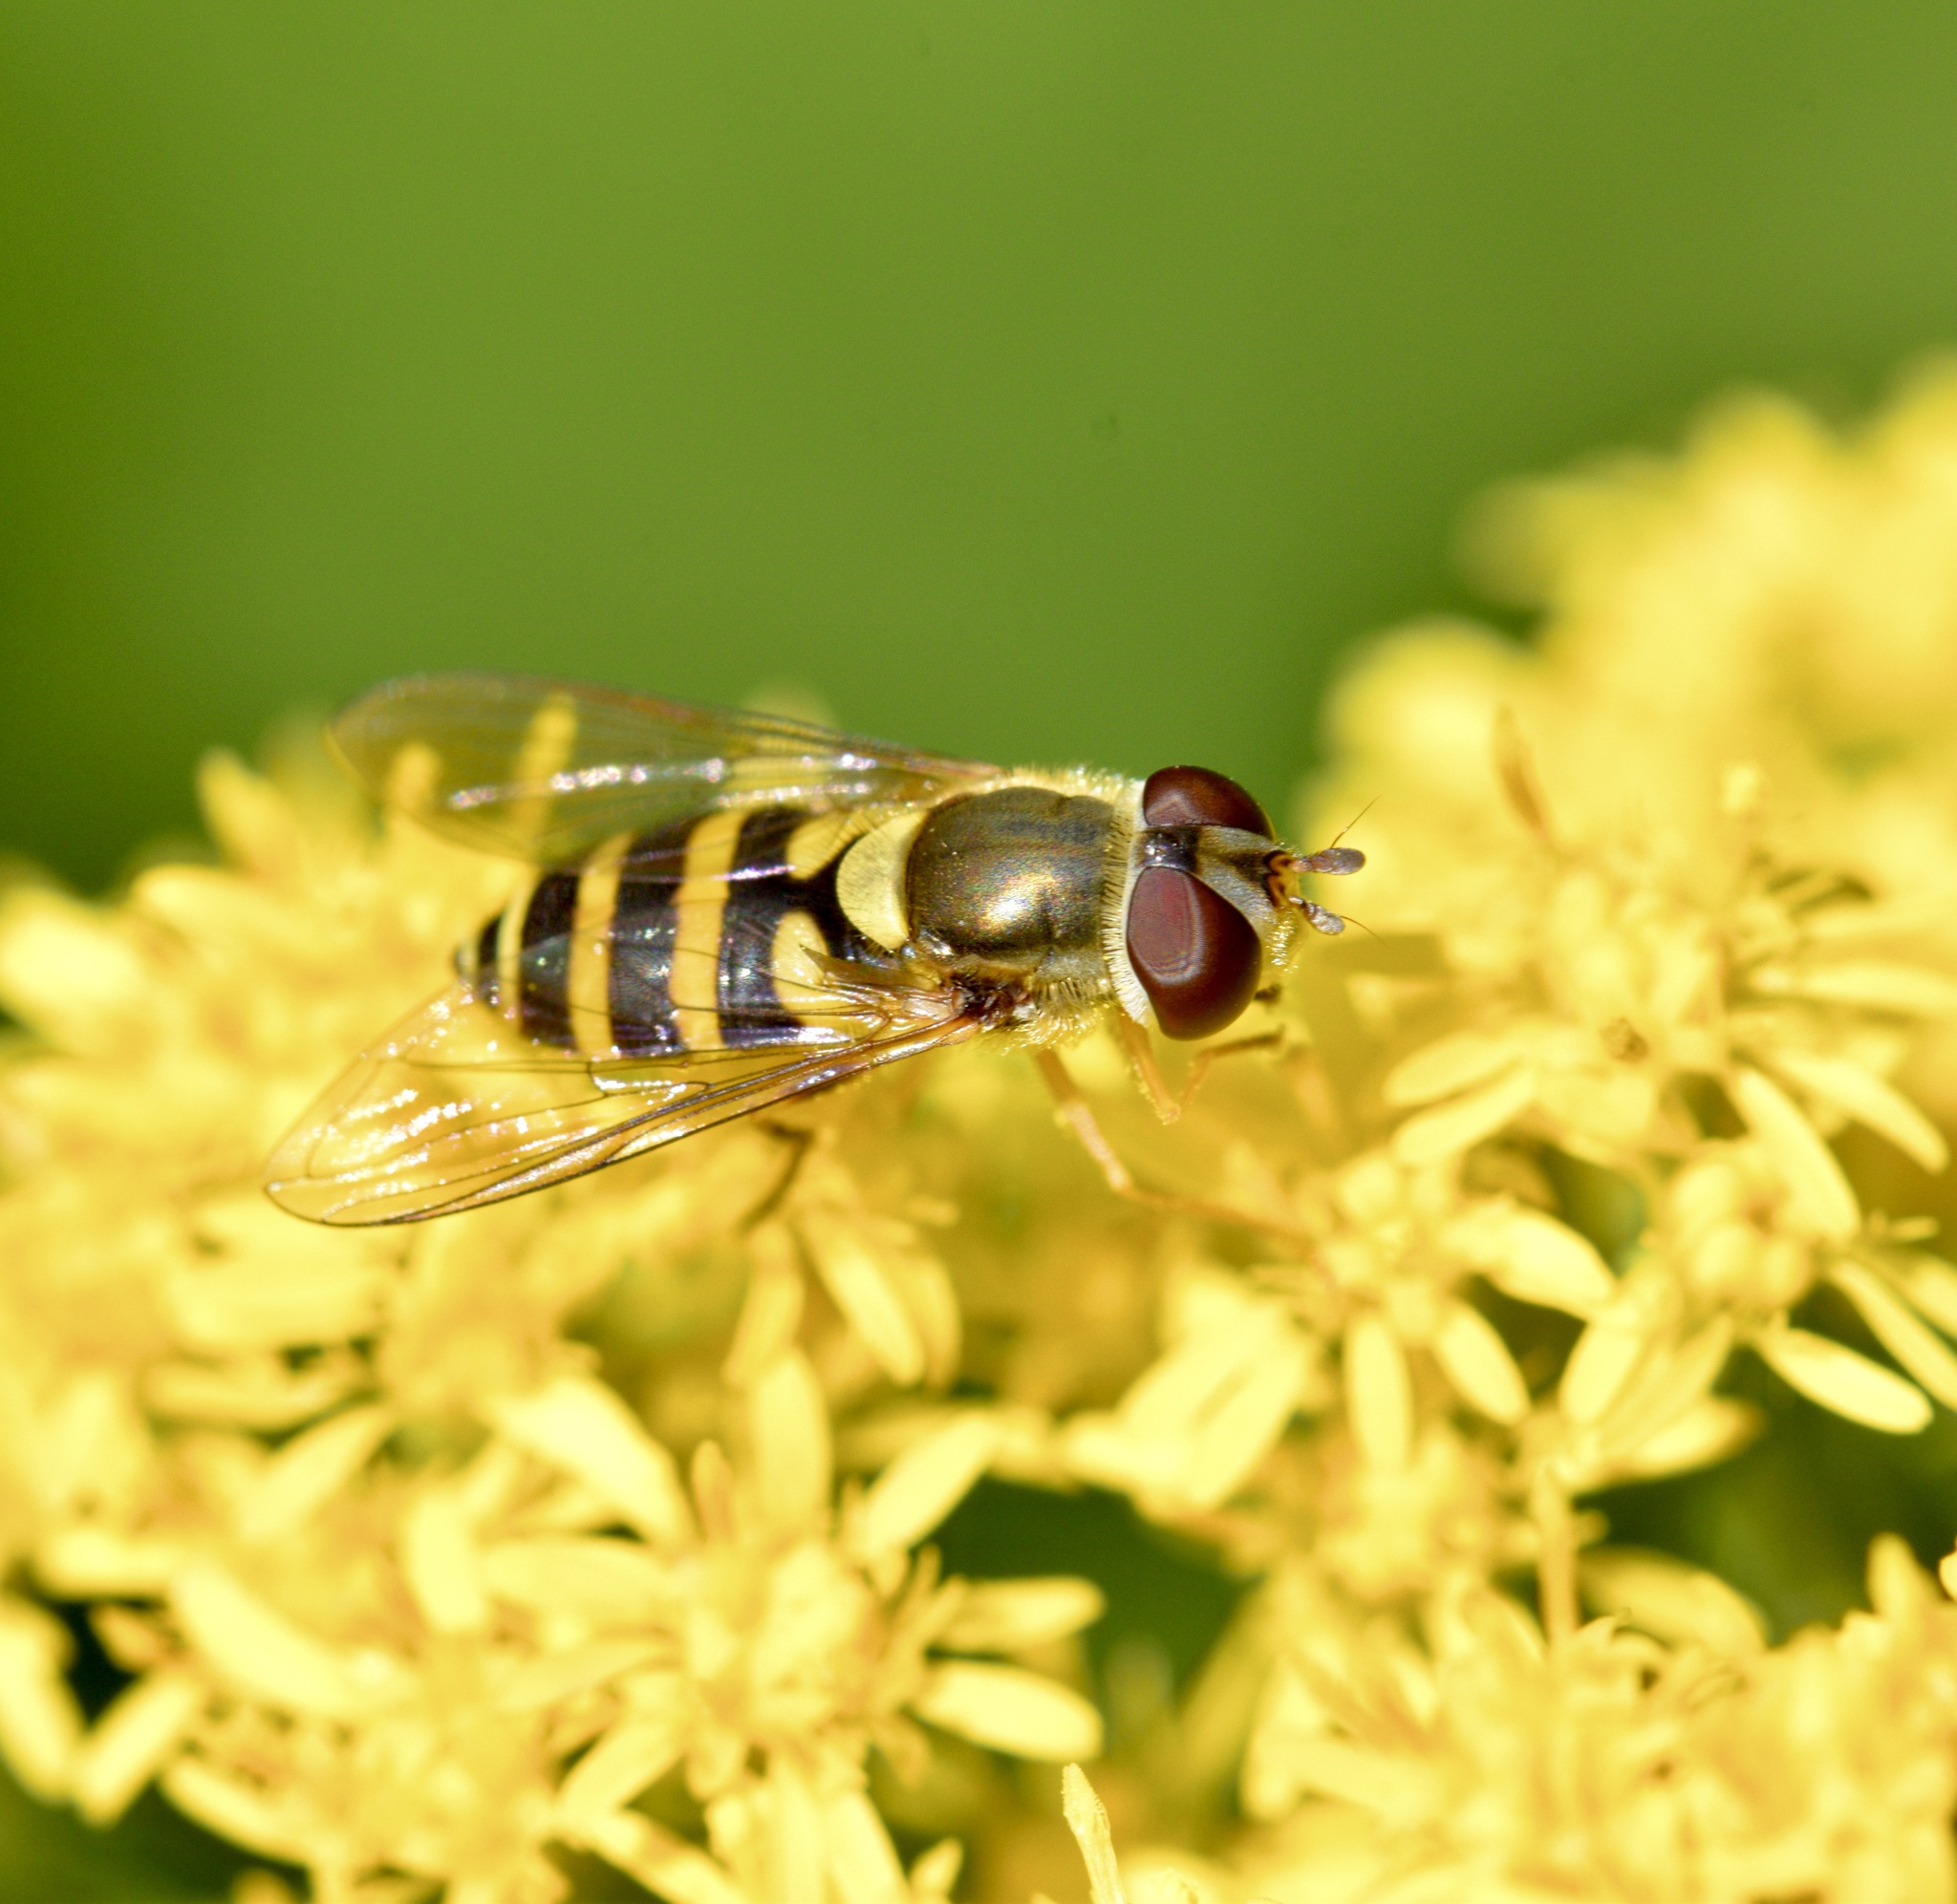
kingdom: Animalia
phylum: Arthropoda
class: Insecta
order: Diptera
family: Syrphidae
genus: Syrphus
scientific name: Syrphus rectus
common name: Yellow-legged flower fly
